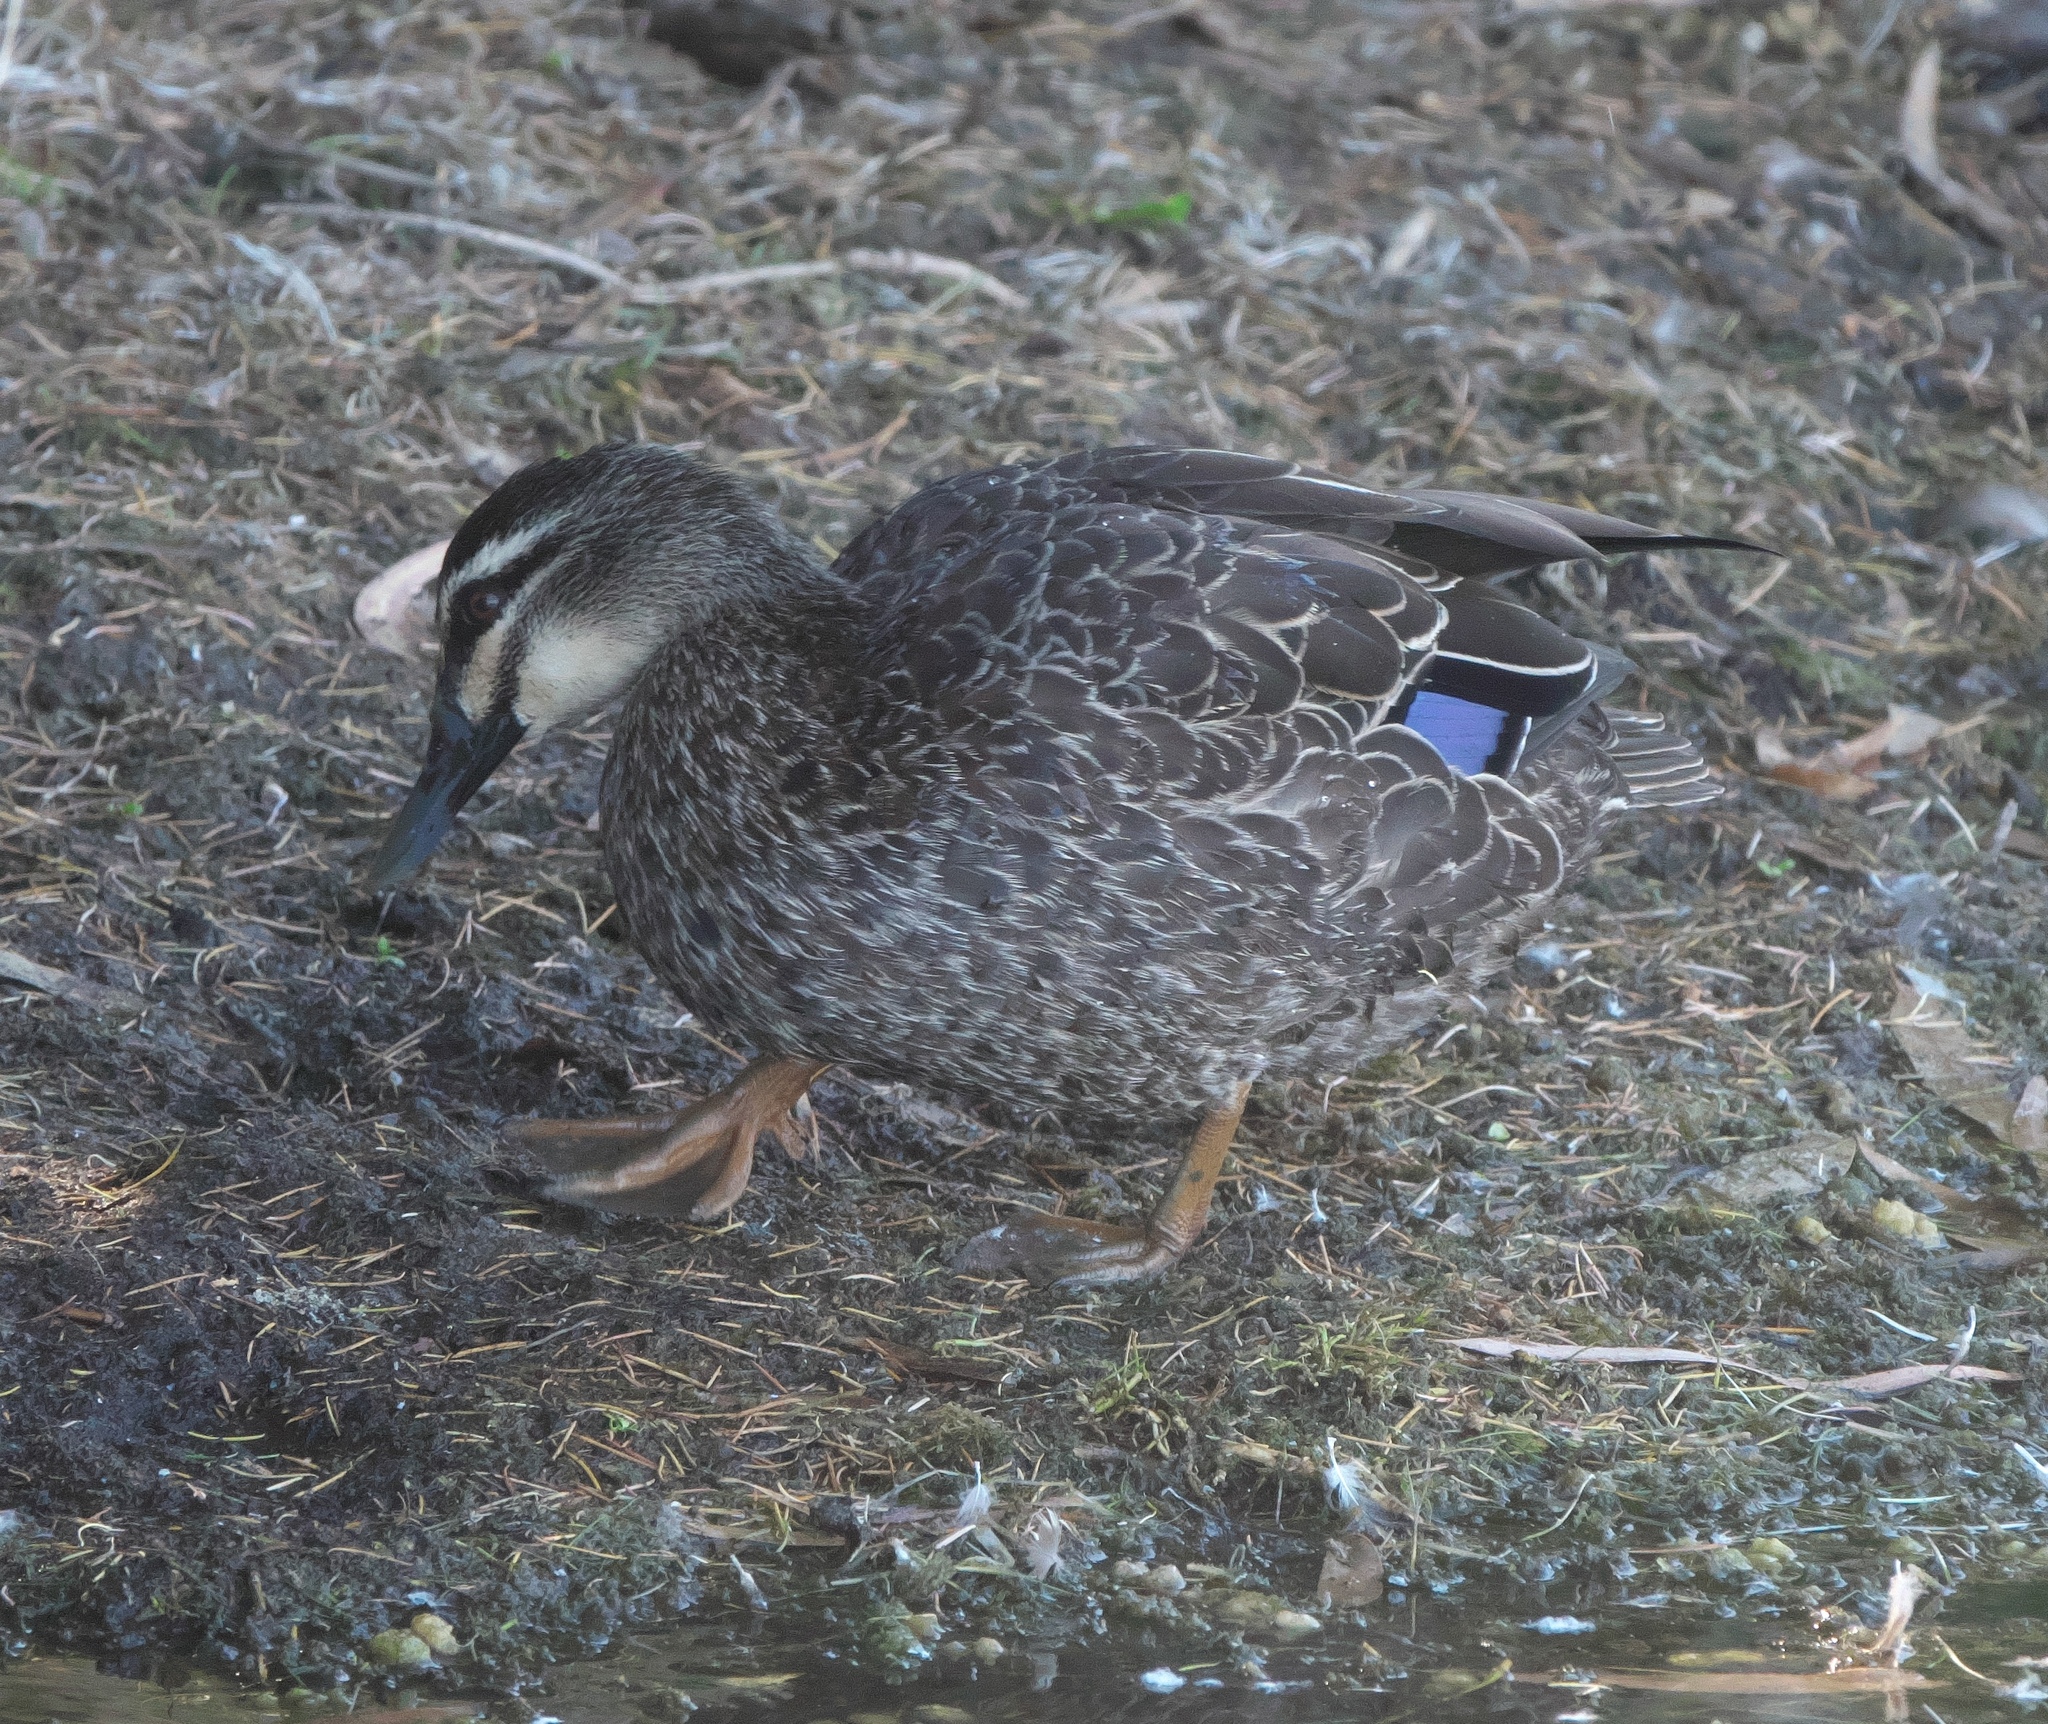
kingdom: Animalia
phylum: Chordata
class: Aves
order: Anseriformes
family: Anatidae
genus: Anas
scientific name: Anas superciliosa
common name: Pacific black duck
